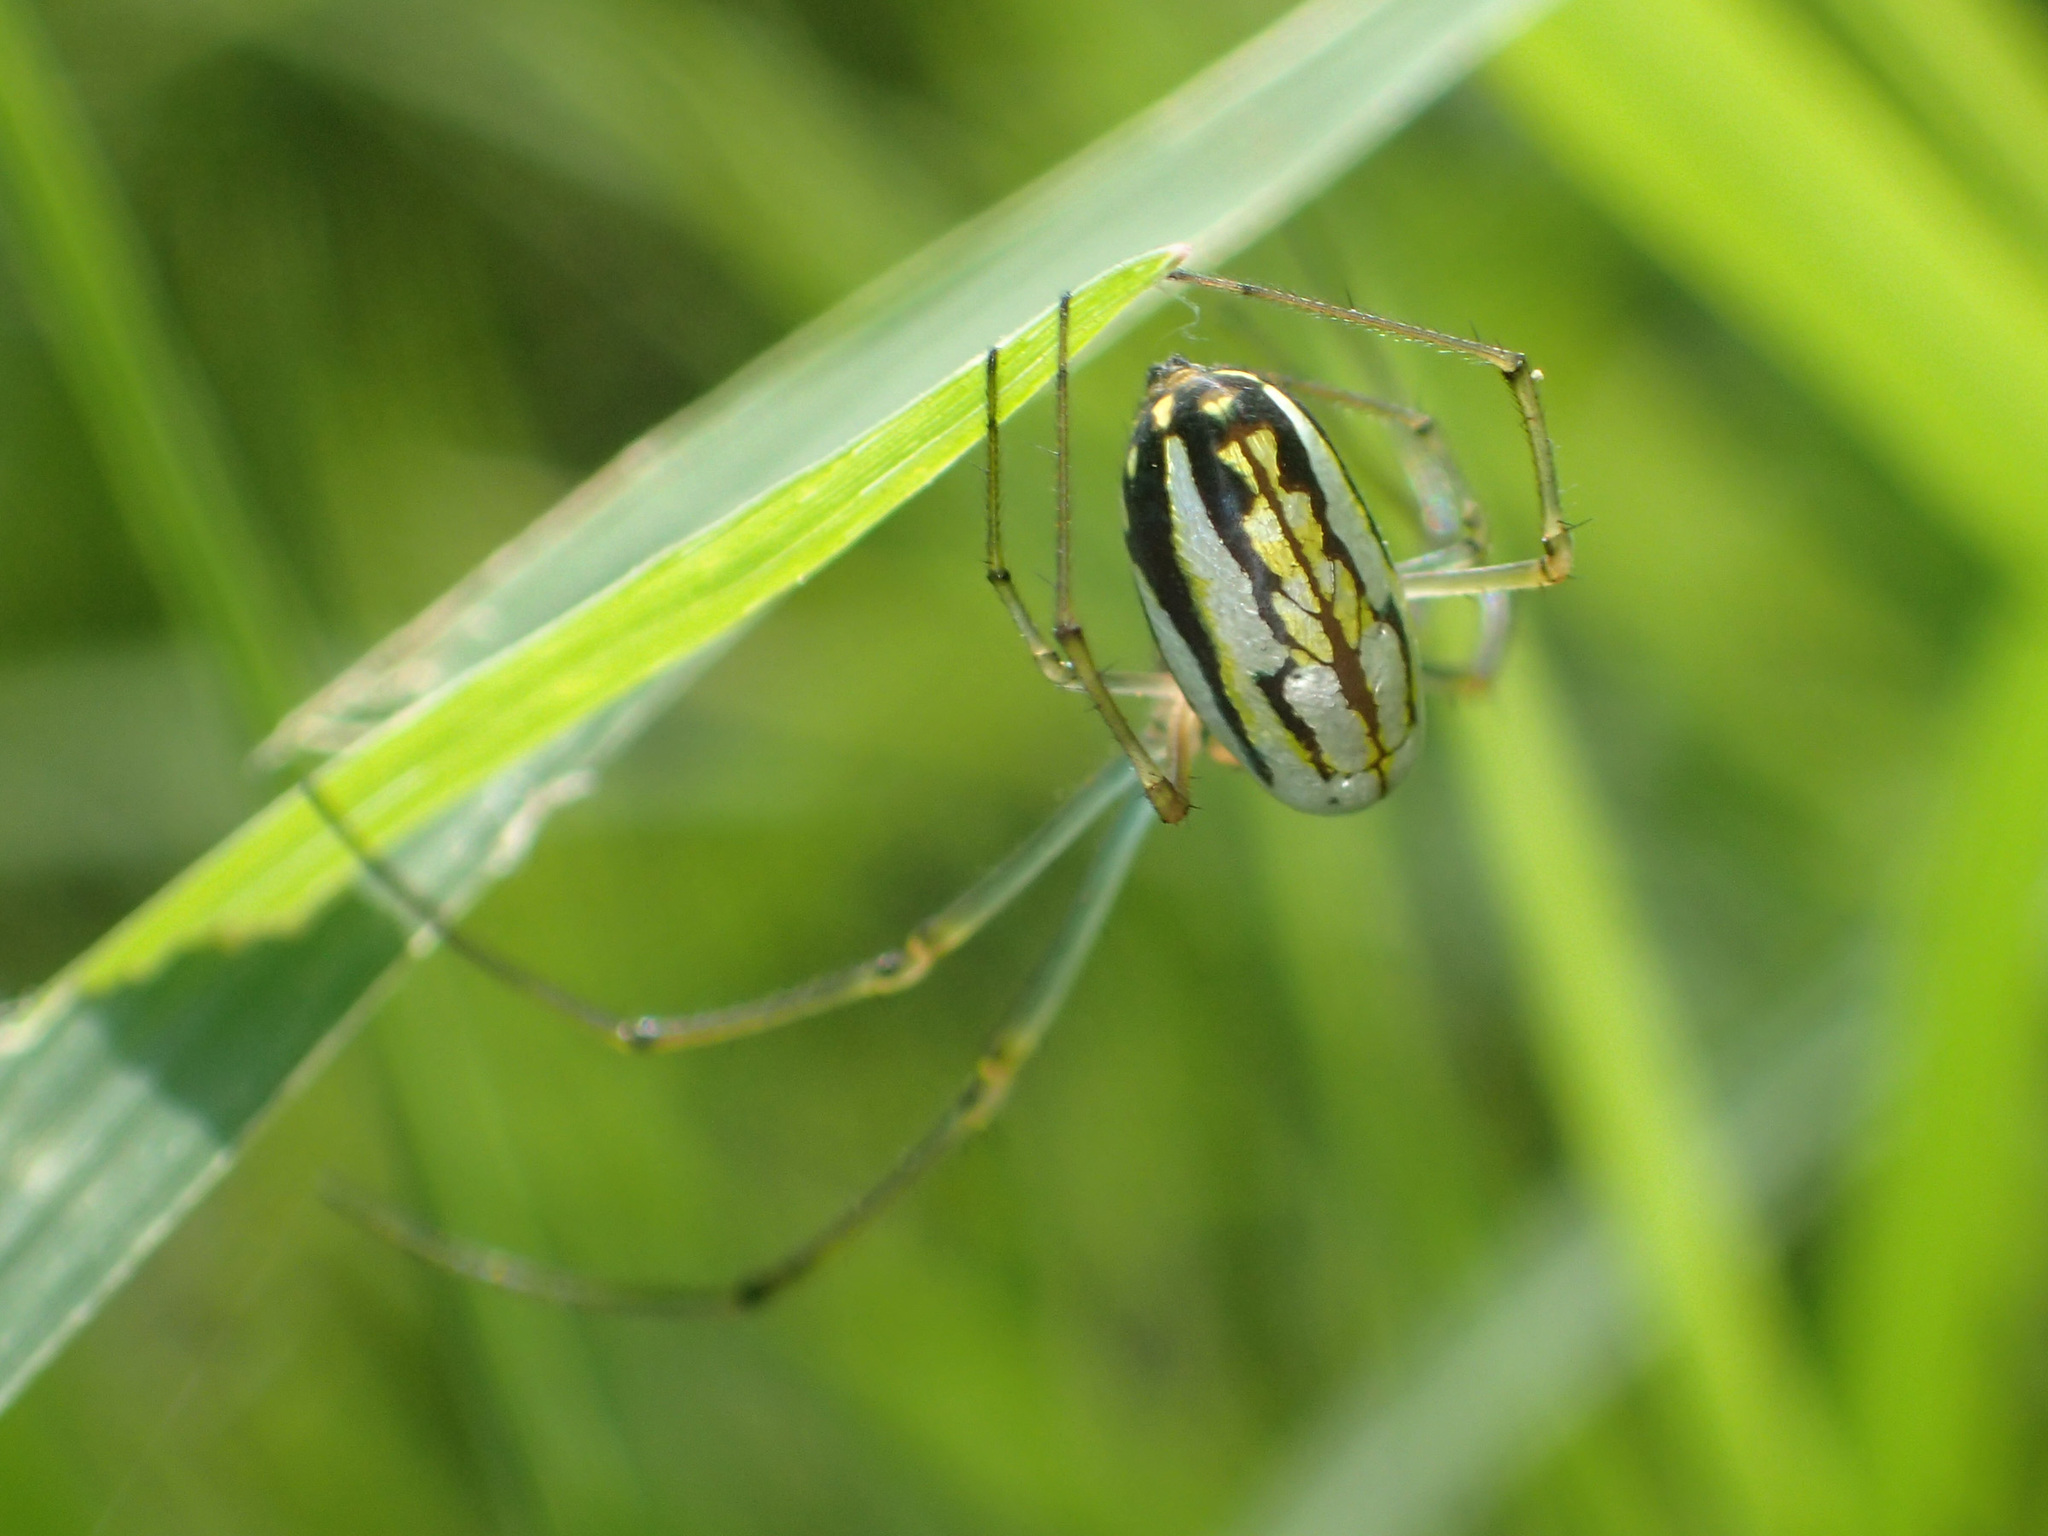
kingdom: Animalia
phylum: Arthropoda
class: Arachnida
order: Araneae
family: Tetragnathidae
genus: Leucauge
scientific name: Leucauge argyra
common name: Longjawed orb weavers
